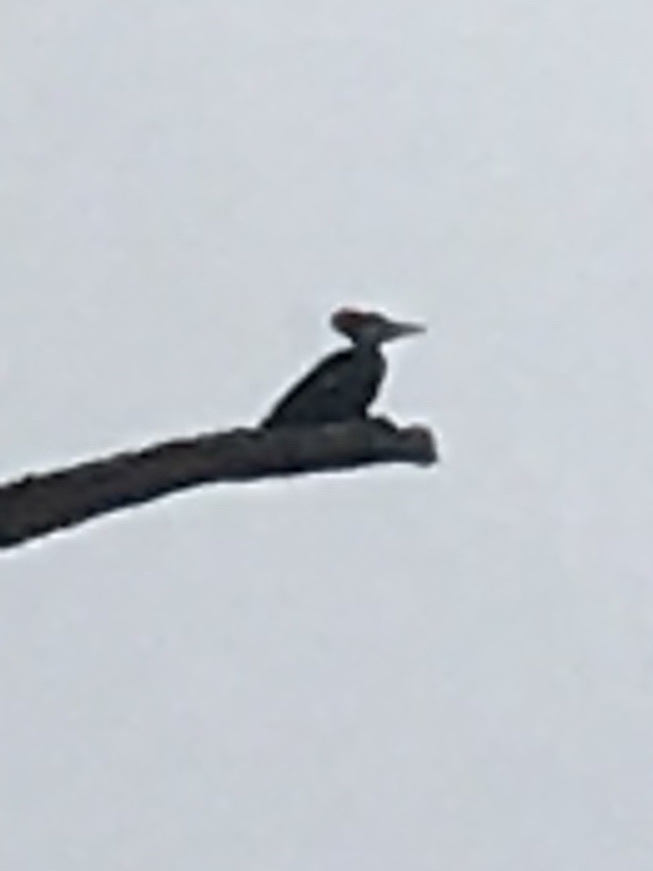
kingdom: Animalia
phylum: Chordata
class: Aves
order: Piciformes
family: Picidae
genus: Dryocopus
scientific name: Dryocopus pileatus
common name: Pileated woodpecker
